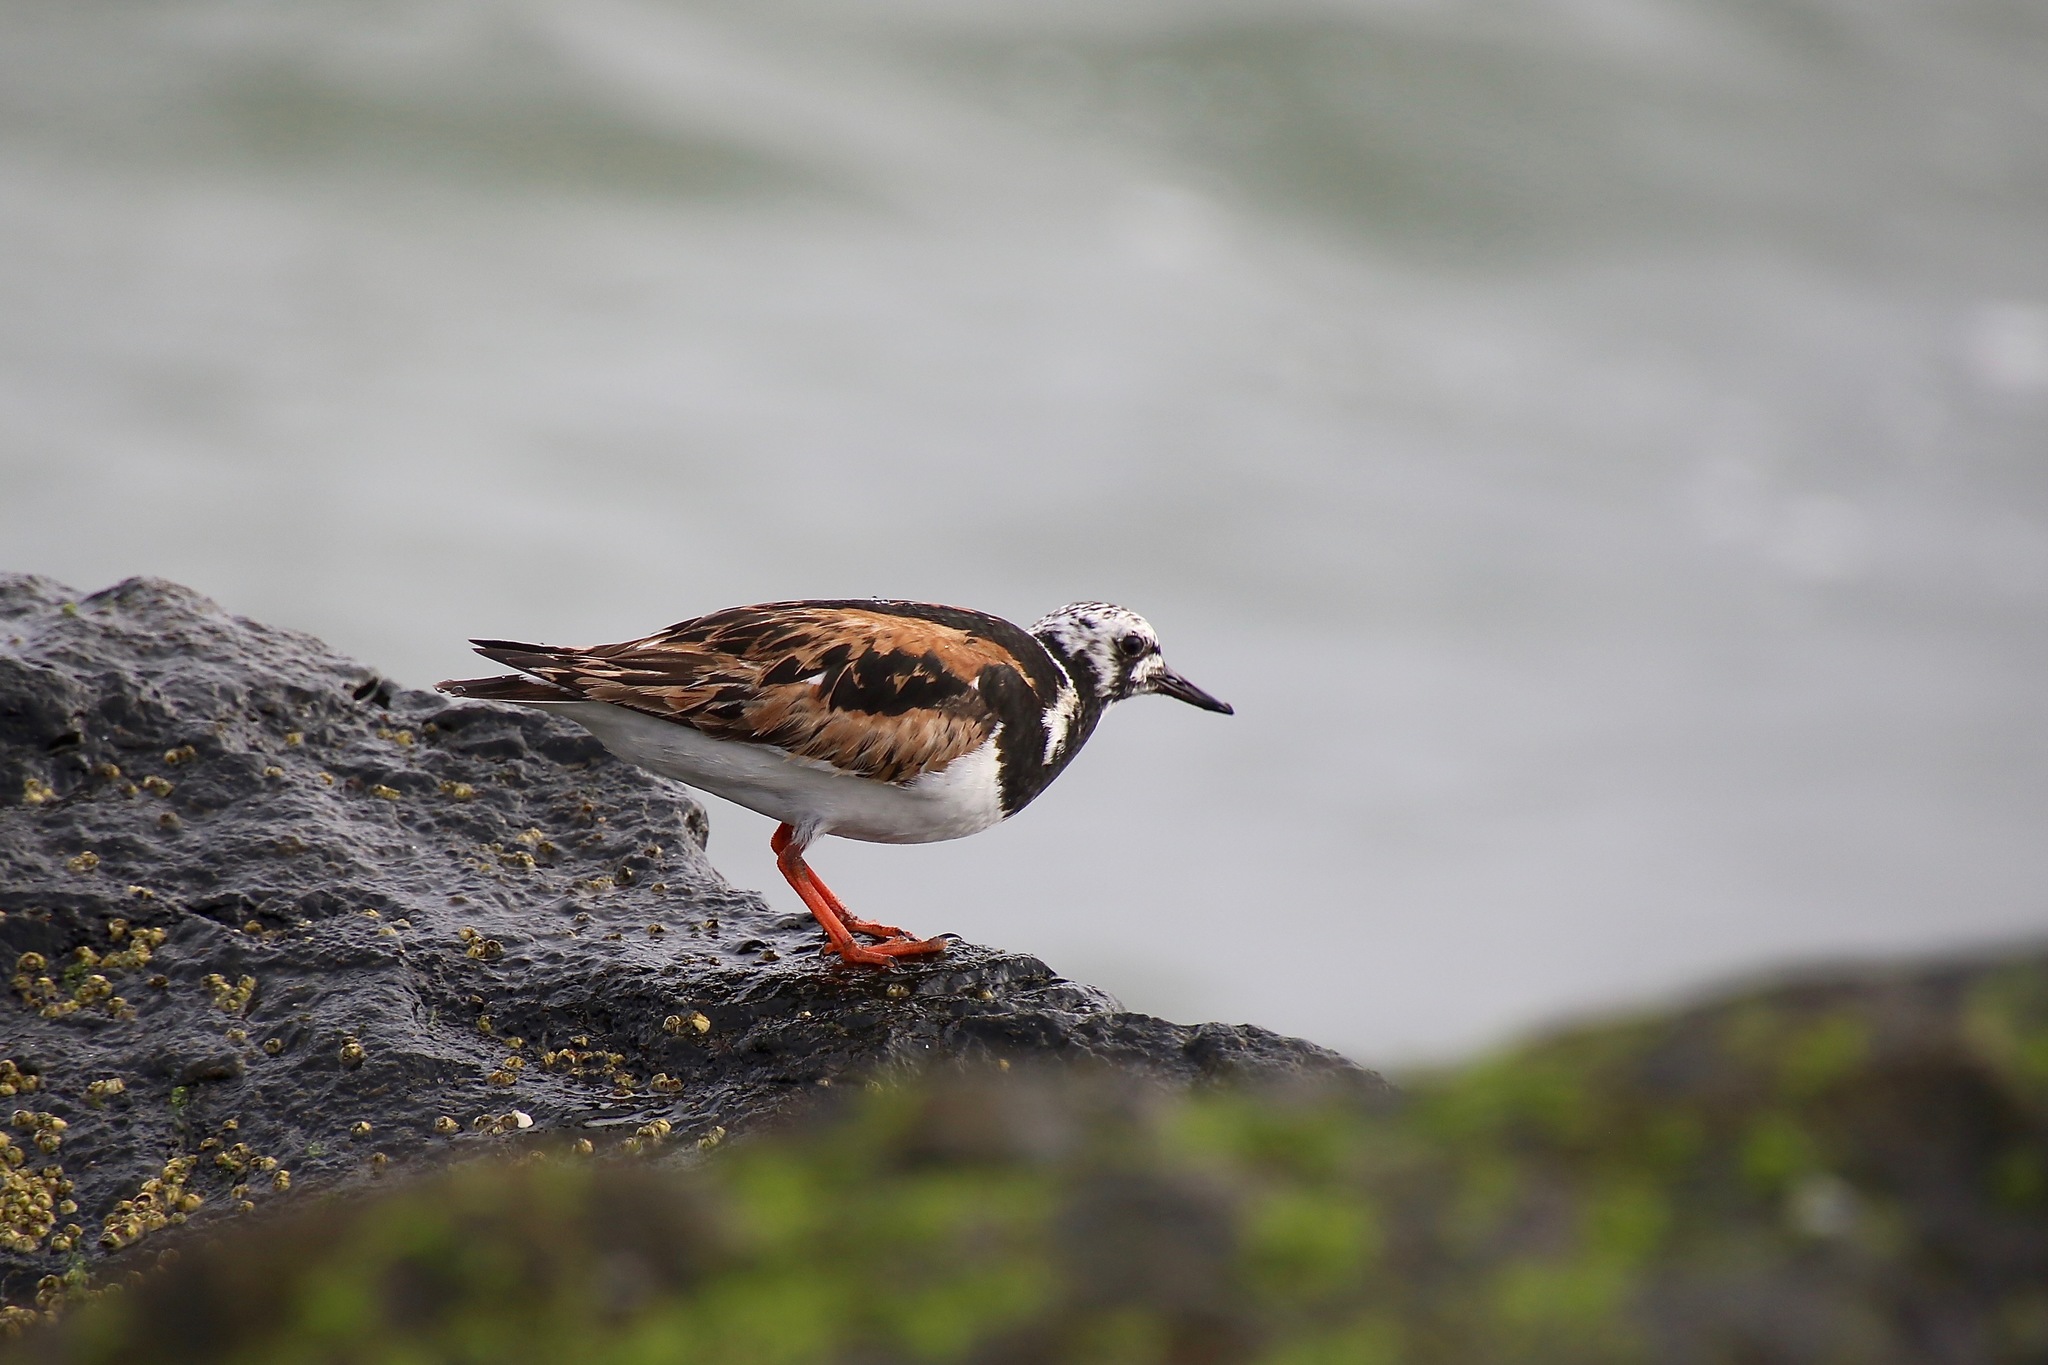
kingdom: Animalia
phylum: Chordata
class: Aves
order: Charadriiformes
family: Scolopacidae
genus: Arenaria
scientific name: Arenaria interpres
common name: Ruddy turnstone
